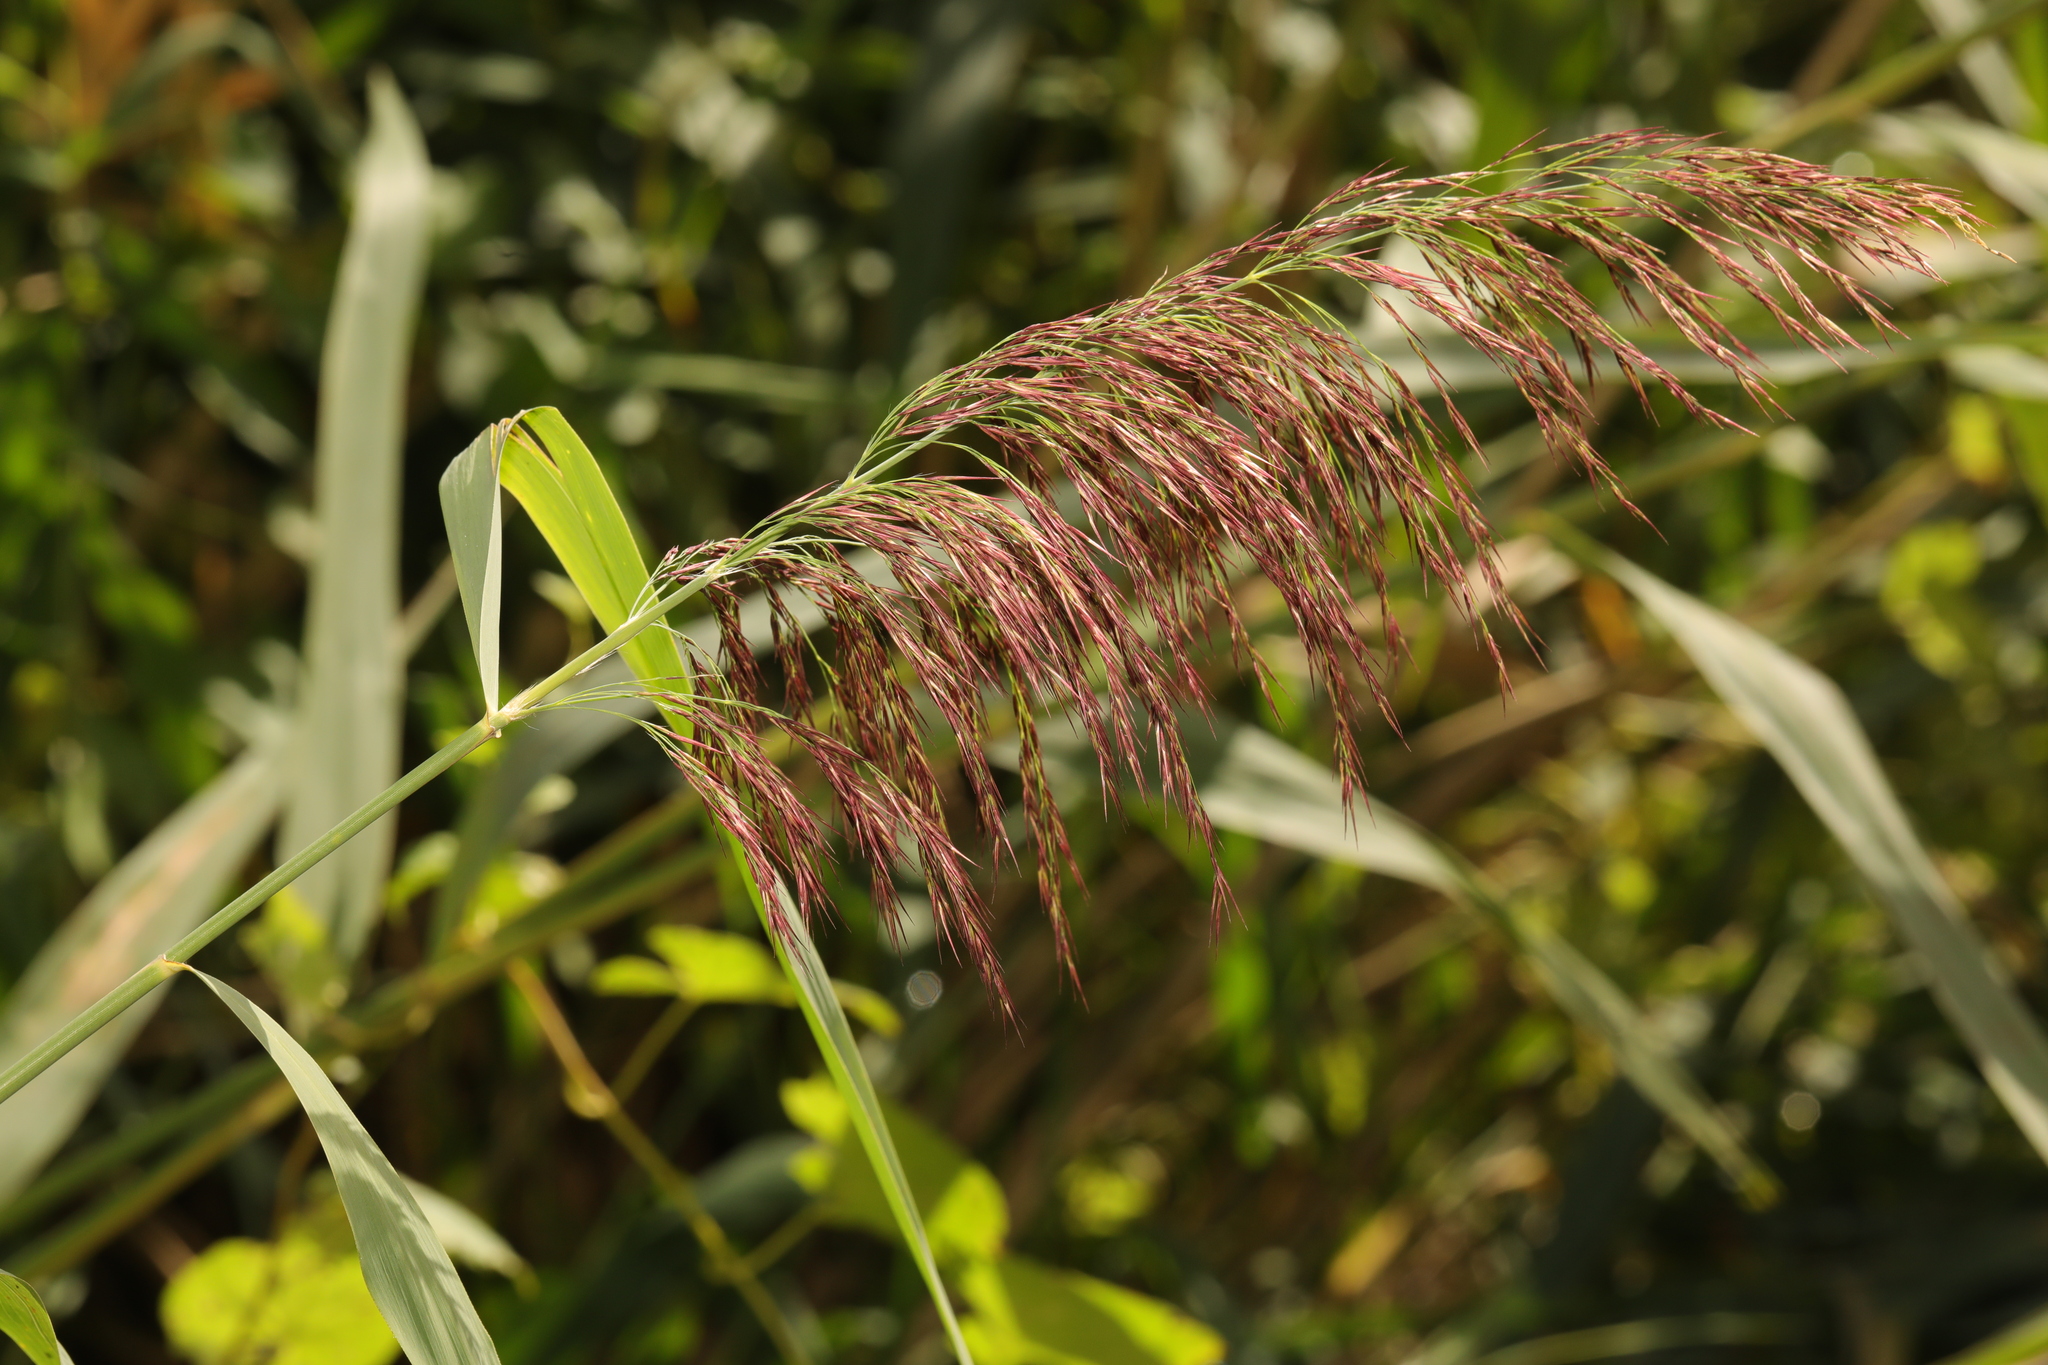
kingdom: Plantae
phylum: Tracheophyta
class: Liliopsida
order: Poales
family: Poaceae
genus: Phragmites
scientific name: Phragmites australis
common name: Common reed
